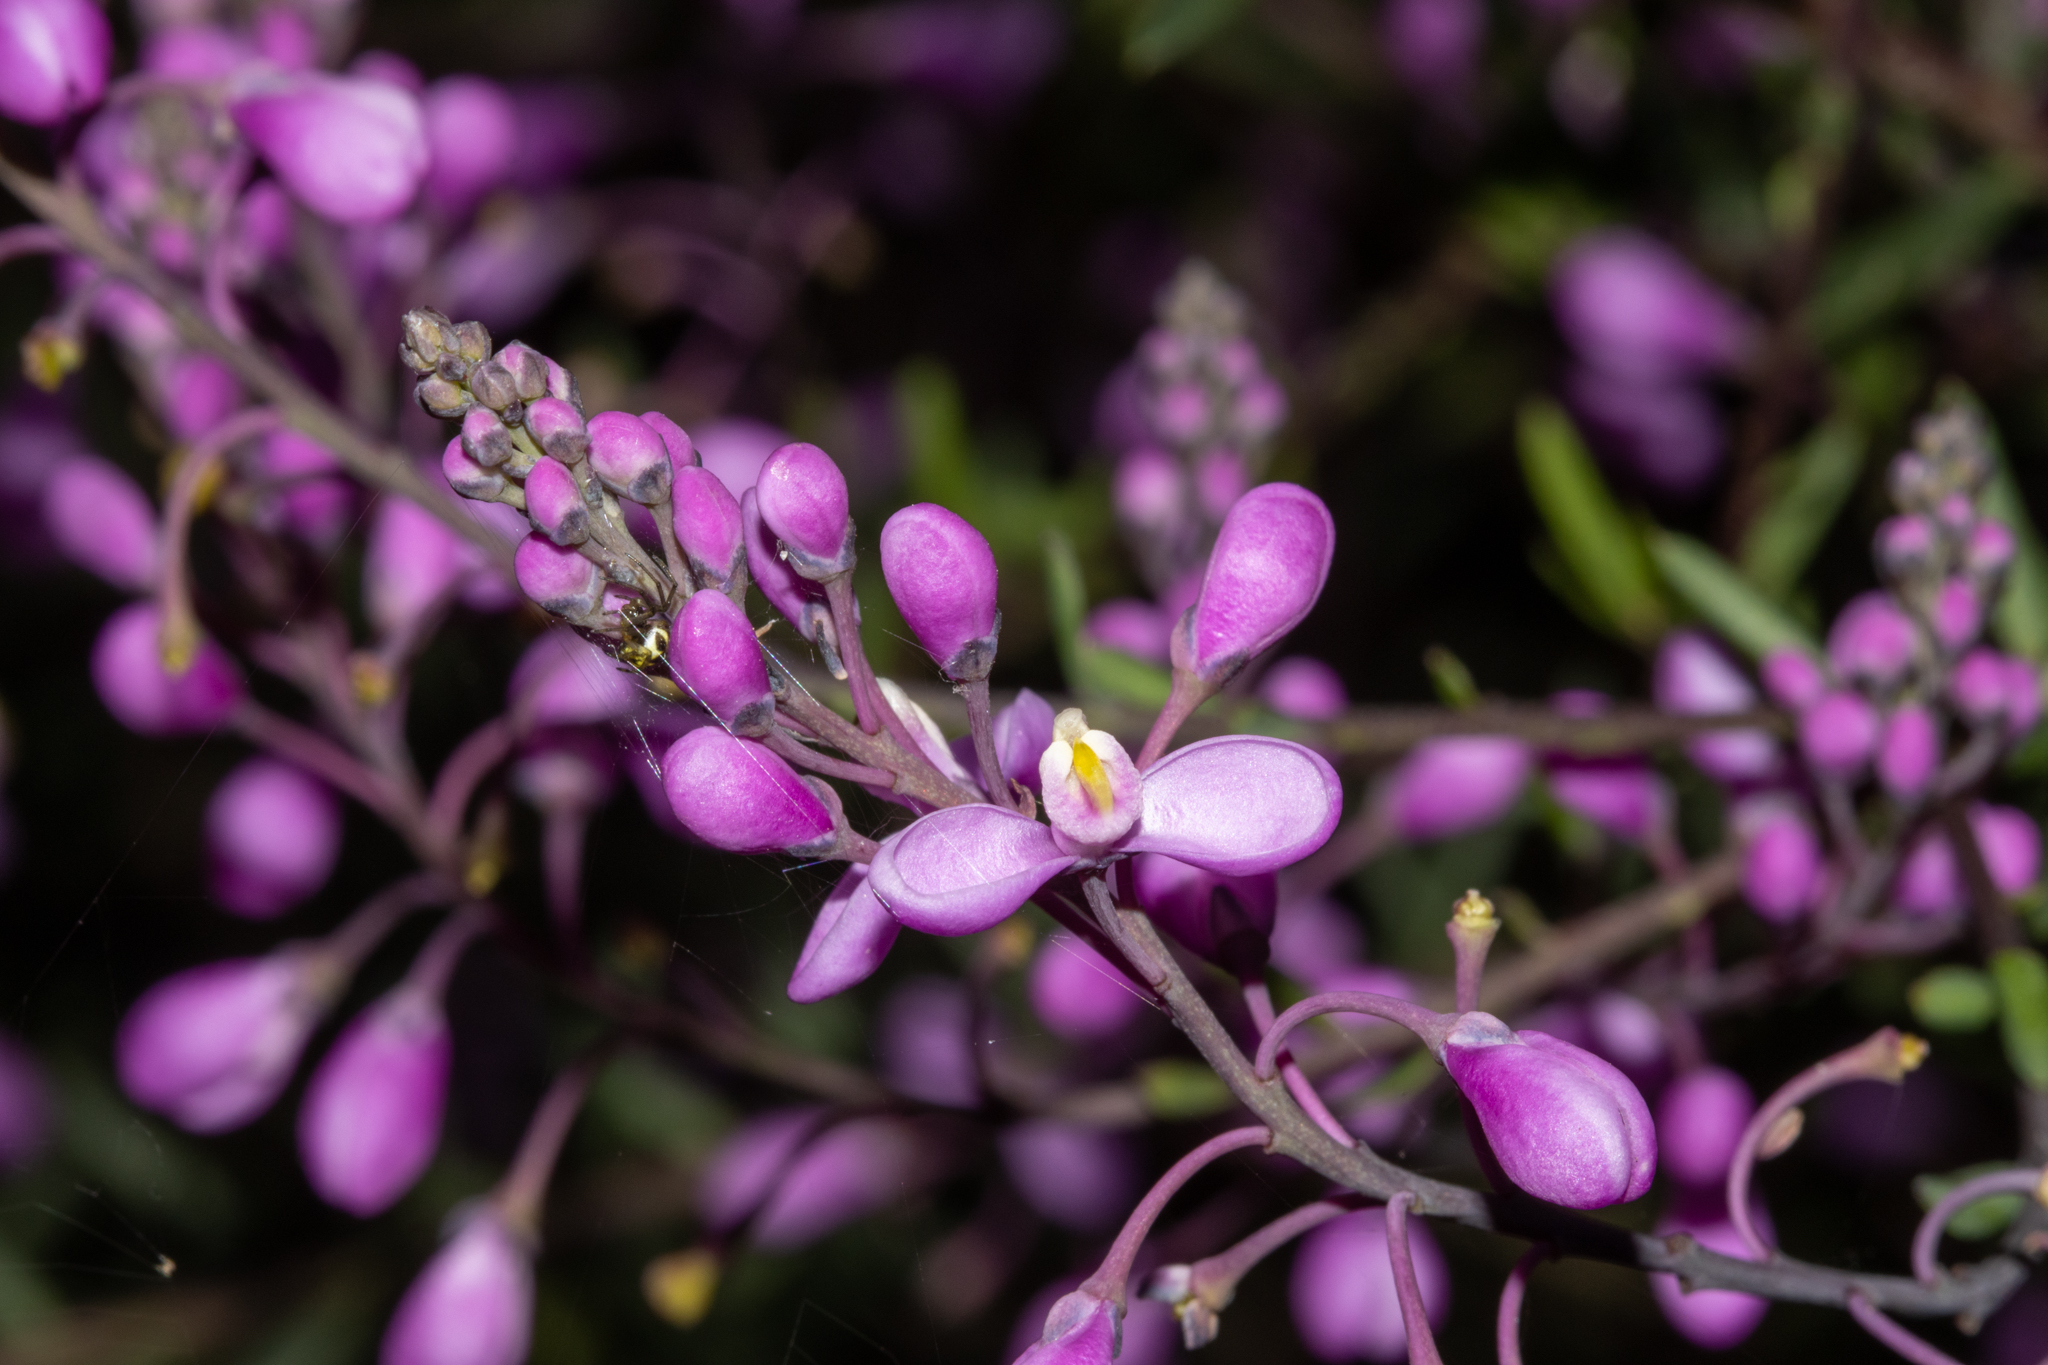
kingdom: Plantae
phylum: Tracheophyta
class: Magnoliopsida
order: Fabales
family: Polygalaceae
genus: Comesperma
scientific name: Comesperma ericinum
